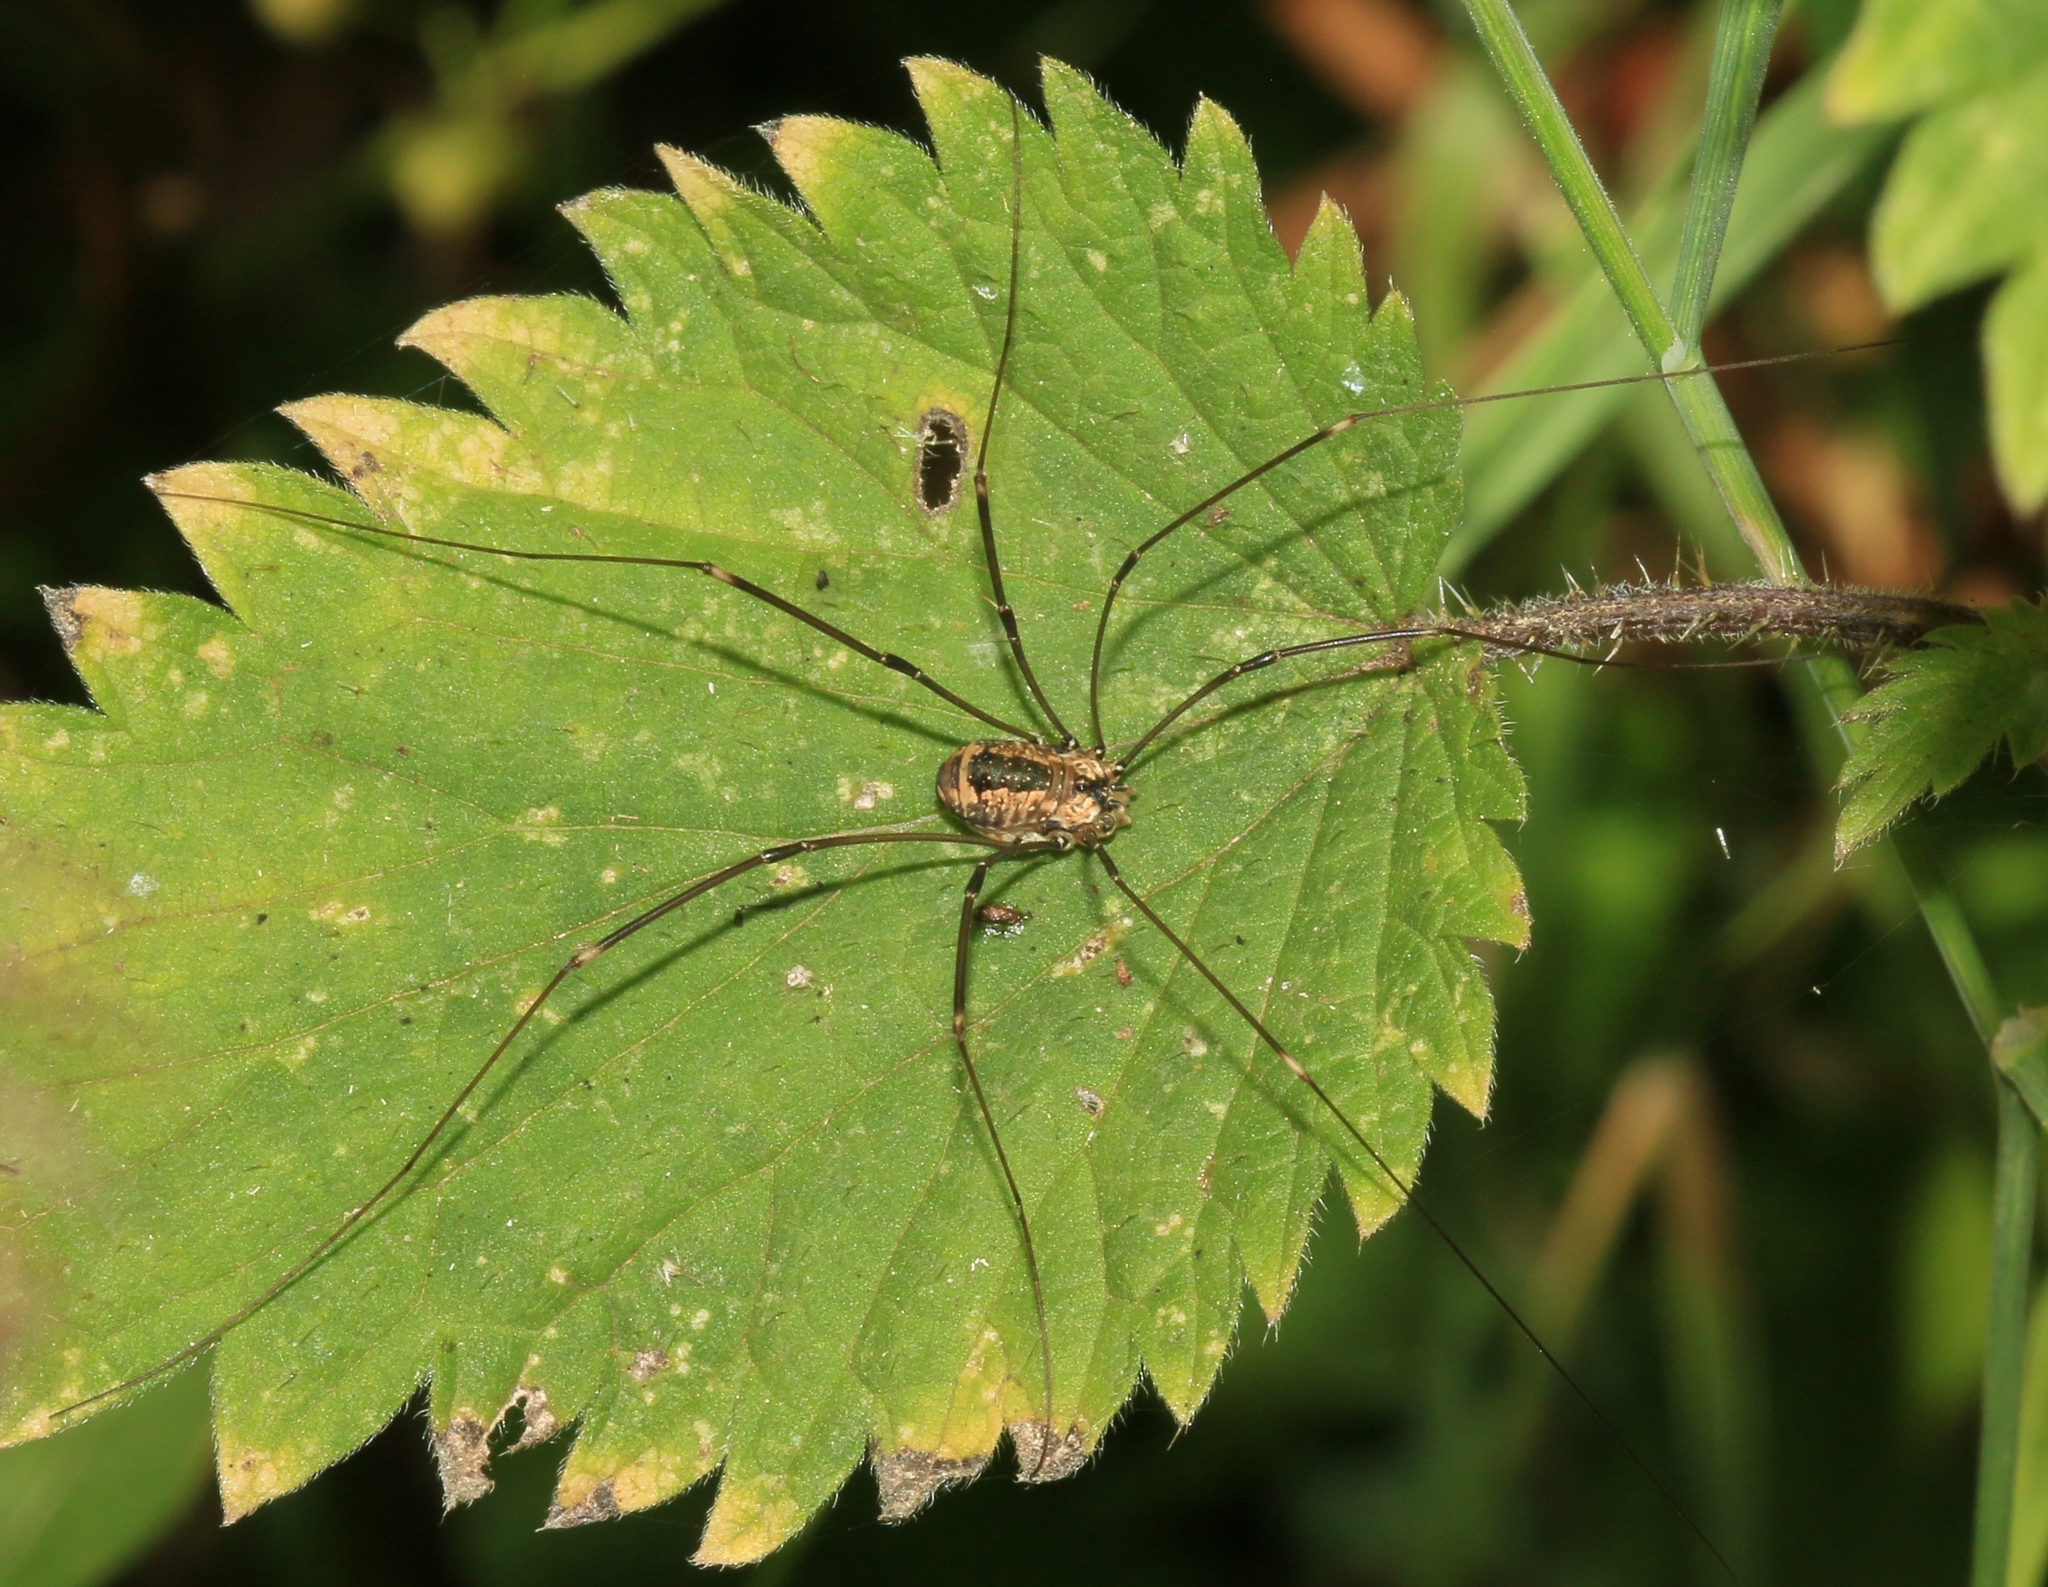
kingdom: Animalia
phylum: Arthropoda
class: Arachnida
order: Opiliones
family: Sclerosomatidae
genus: Leiobunum
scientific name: Leiobunum rotundum
